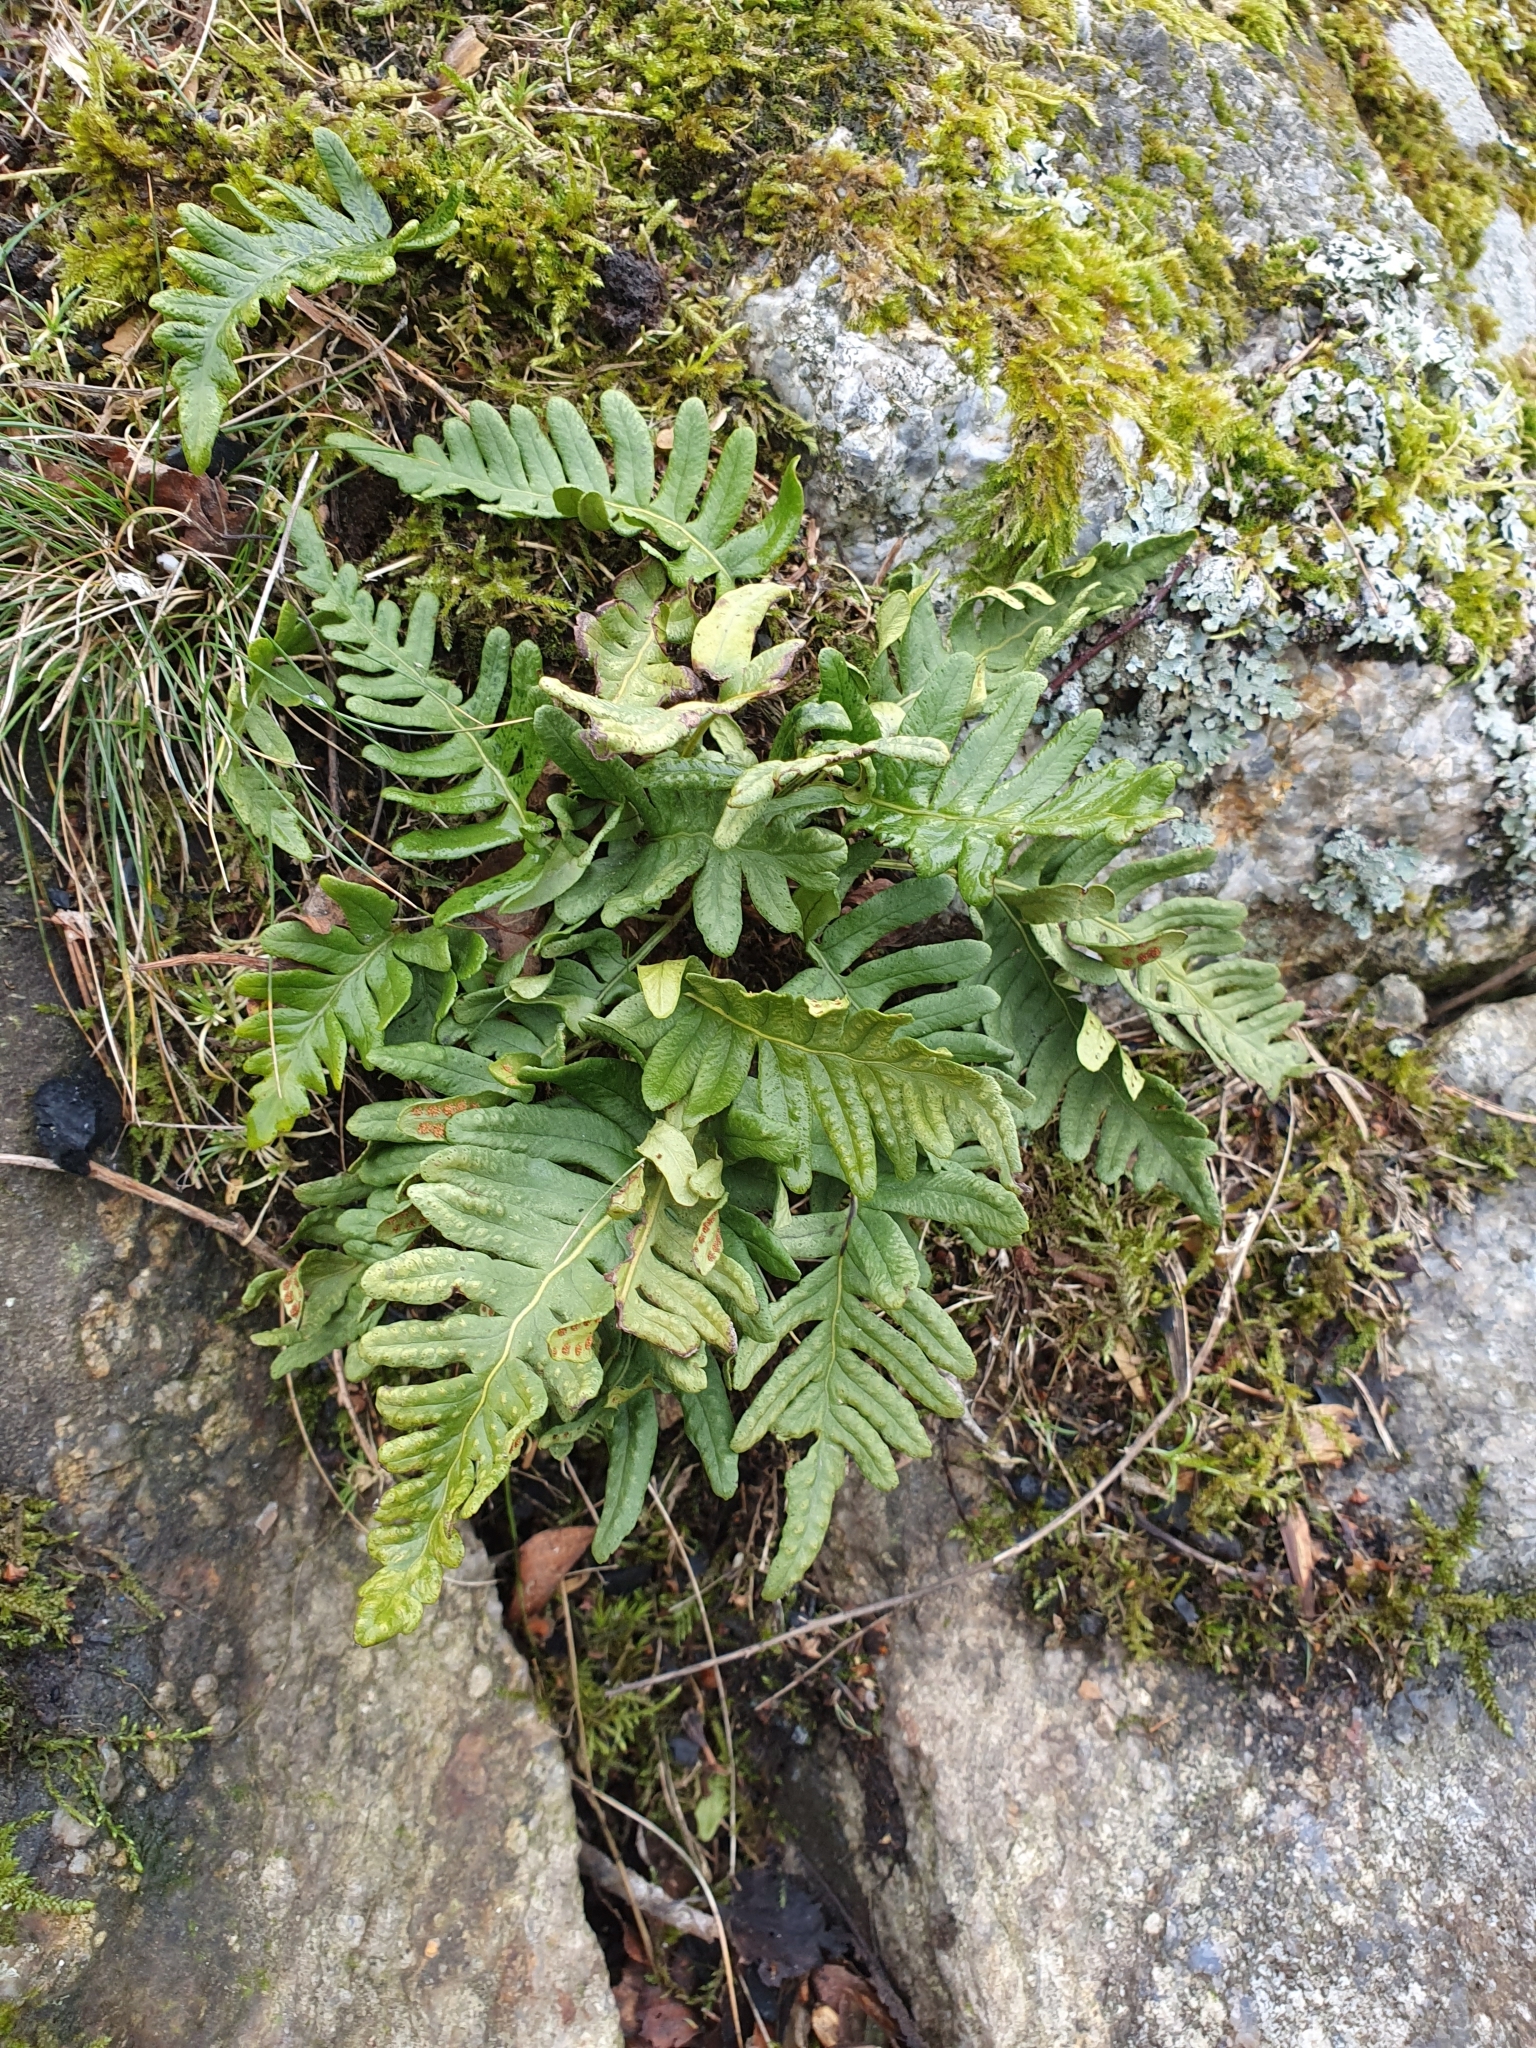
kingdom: Plantae
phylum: Tracheophyta
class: Polypodiopsida
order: Polypodiales
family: Polypodiaceae
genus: Polypodium
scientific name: Polypodium vulgare
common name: Common polypody
